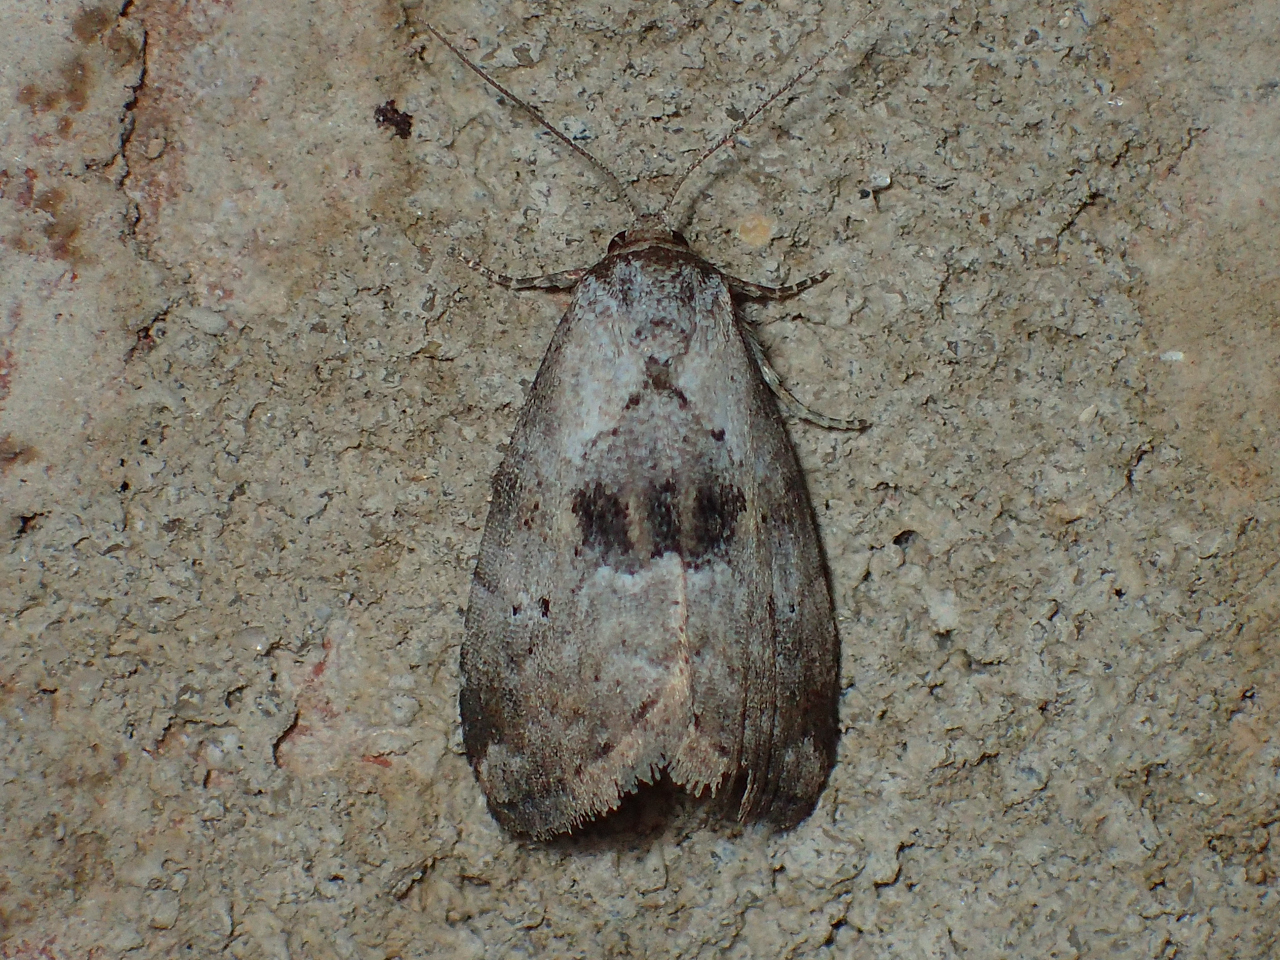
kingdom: Animalia
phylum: Arthropoda
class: Insecta
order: Lepidoptera
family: Erebidae
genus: Hyperstrotia
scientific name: Hyperstrotia secta
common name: Black-patched graylet
